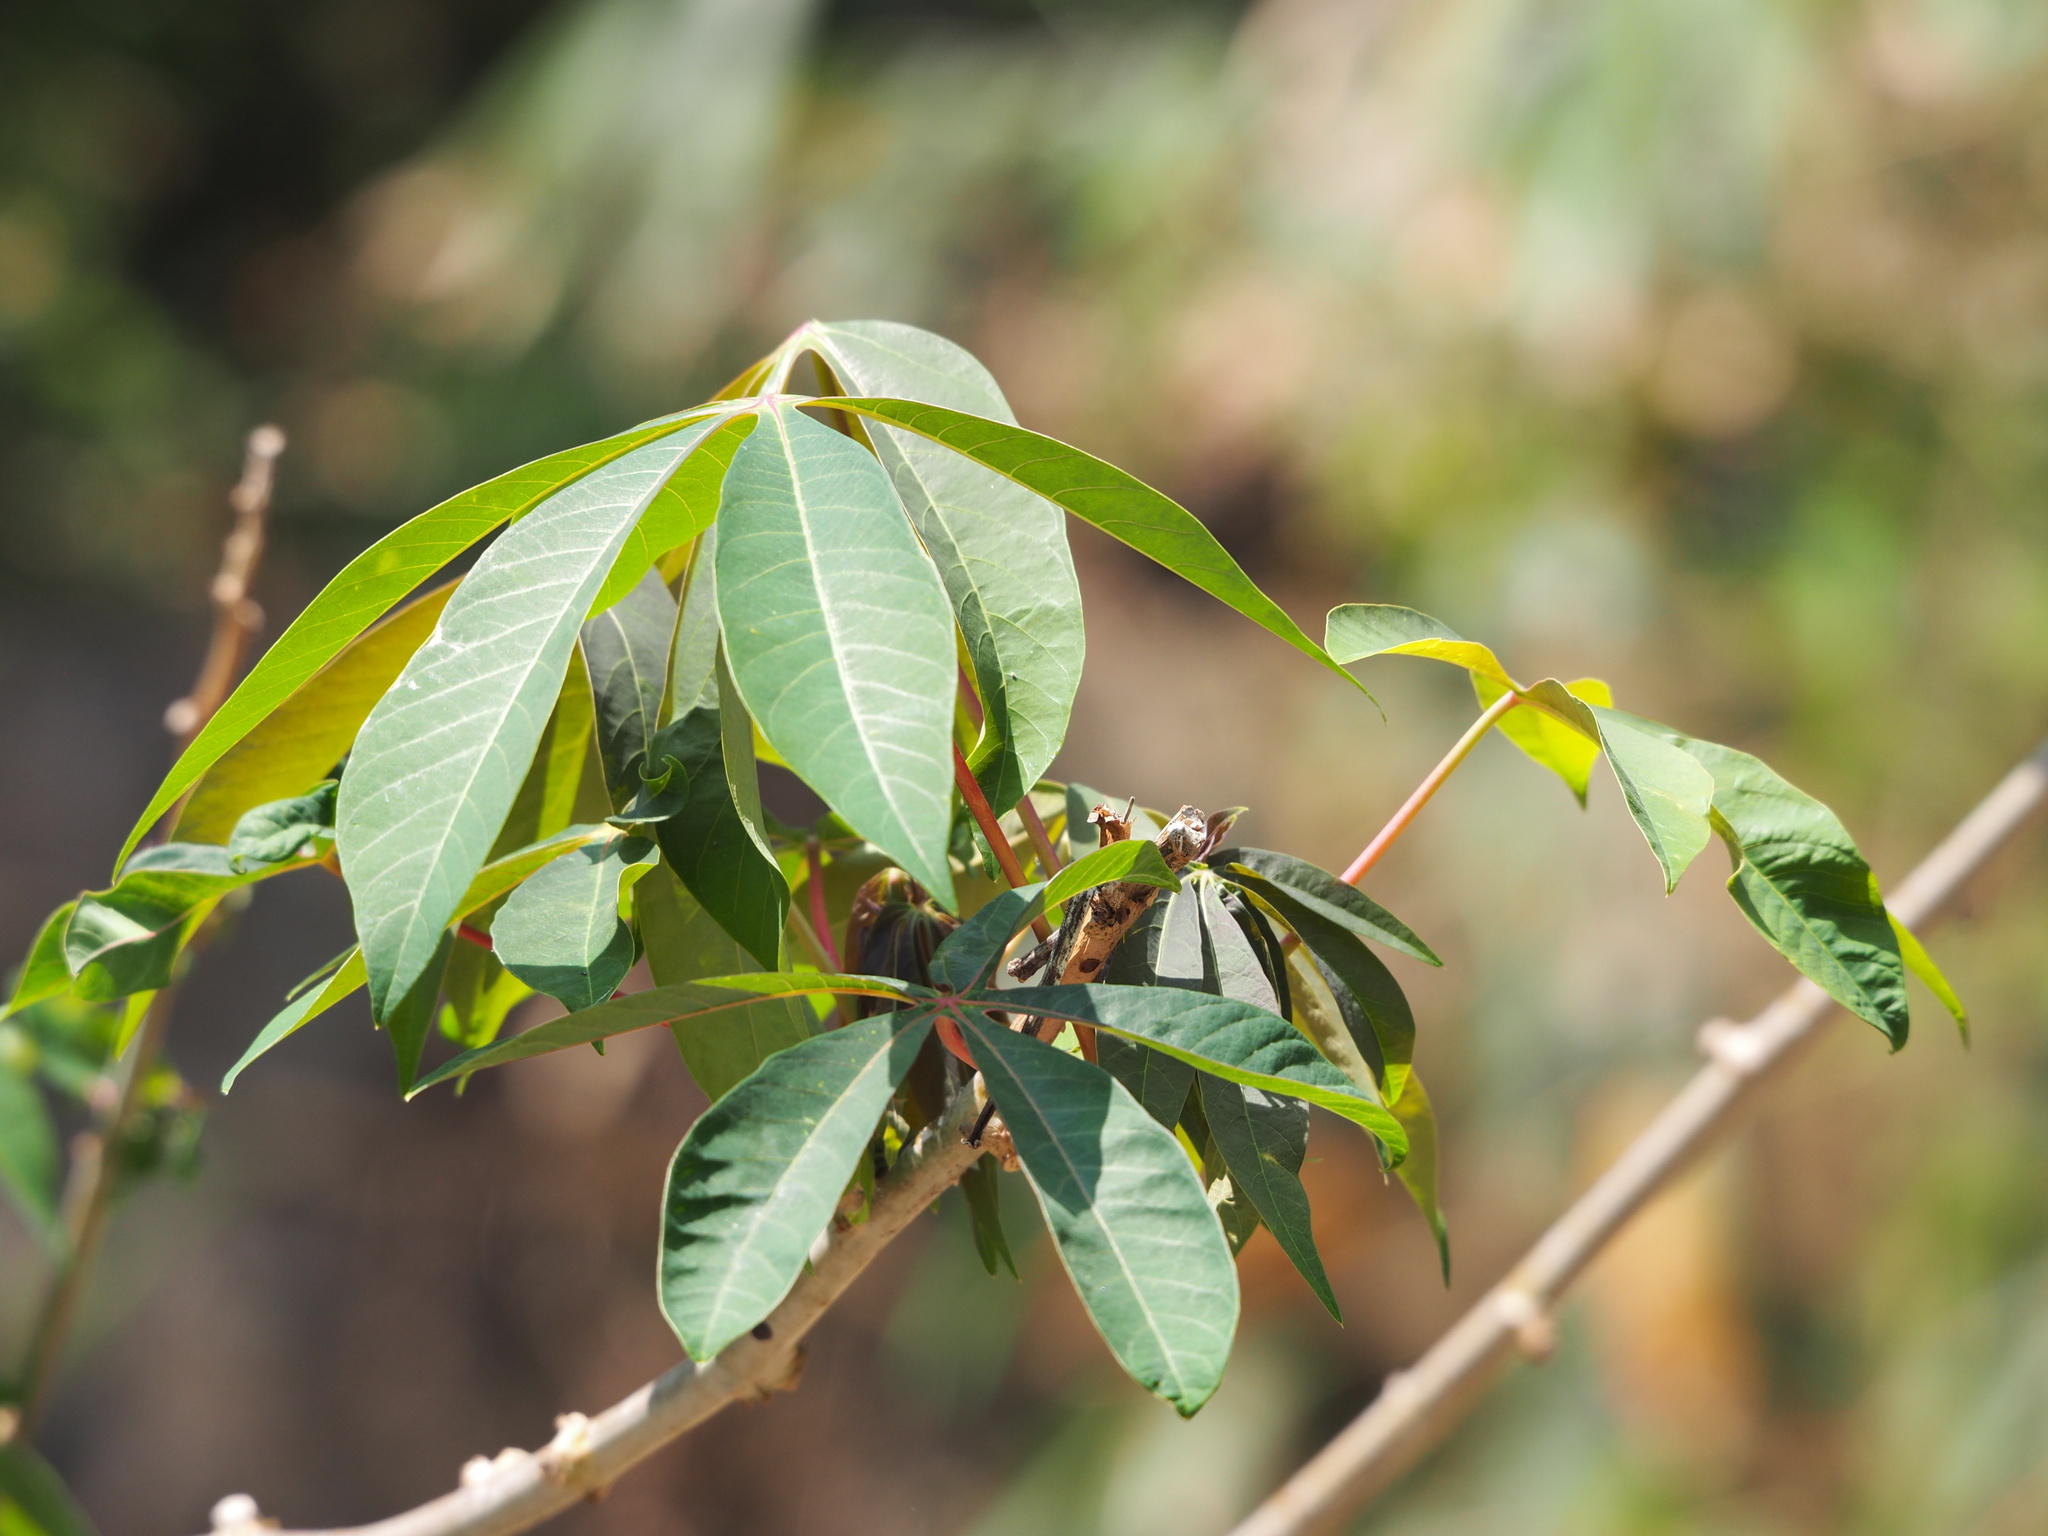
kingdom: Plantae
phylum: Tracheophyta
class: Magnoliopsida
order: Malpighiales
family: Euphorbiaceae
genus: Manihot
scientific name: Manihot esculenta
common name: Cassava
